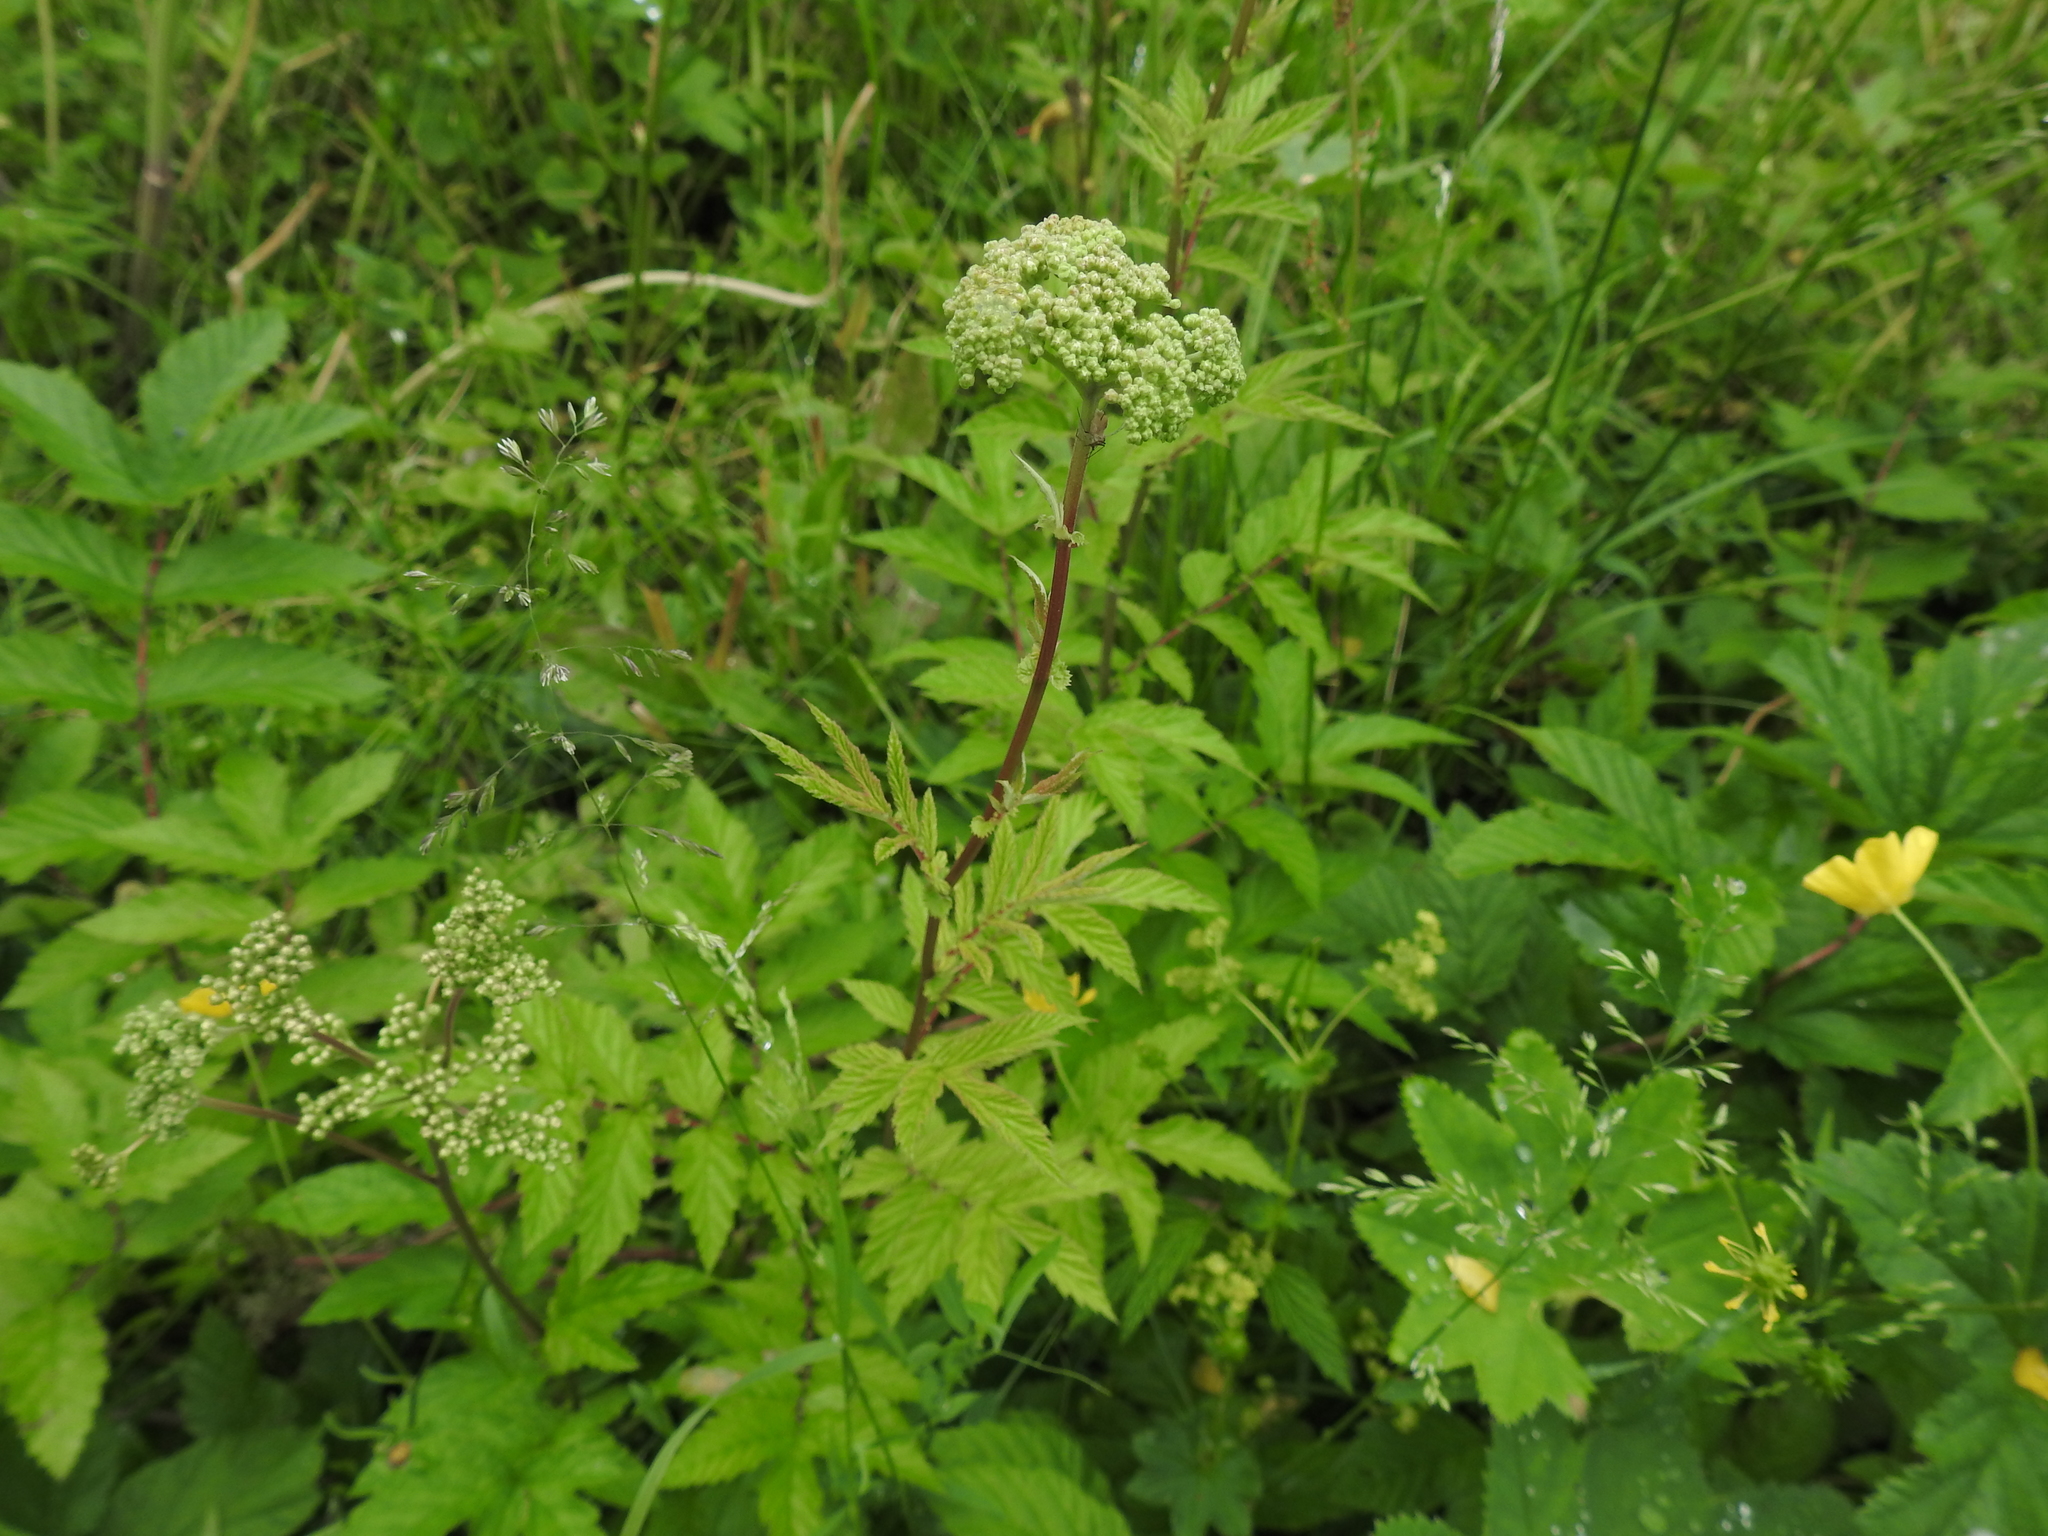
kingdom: Plantae
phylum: Tracheophyta
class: Magnoliopsida
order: Rosales
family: Rosaceae
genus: Filipendula
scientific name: Filipendula ulmaria
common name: Meadowsweet
